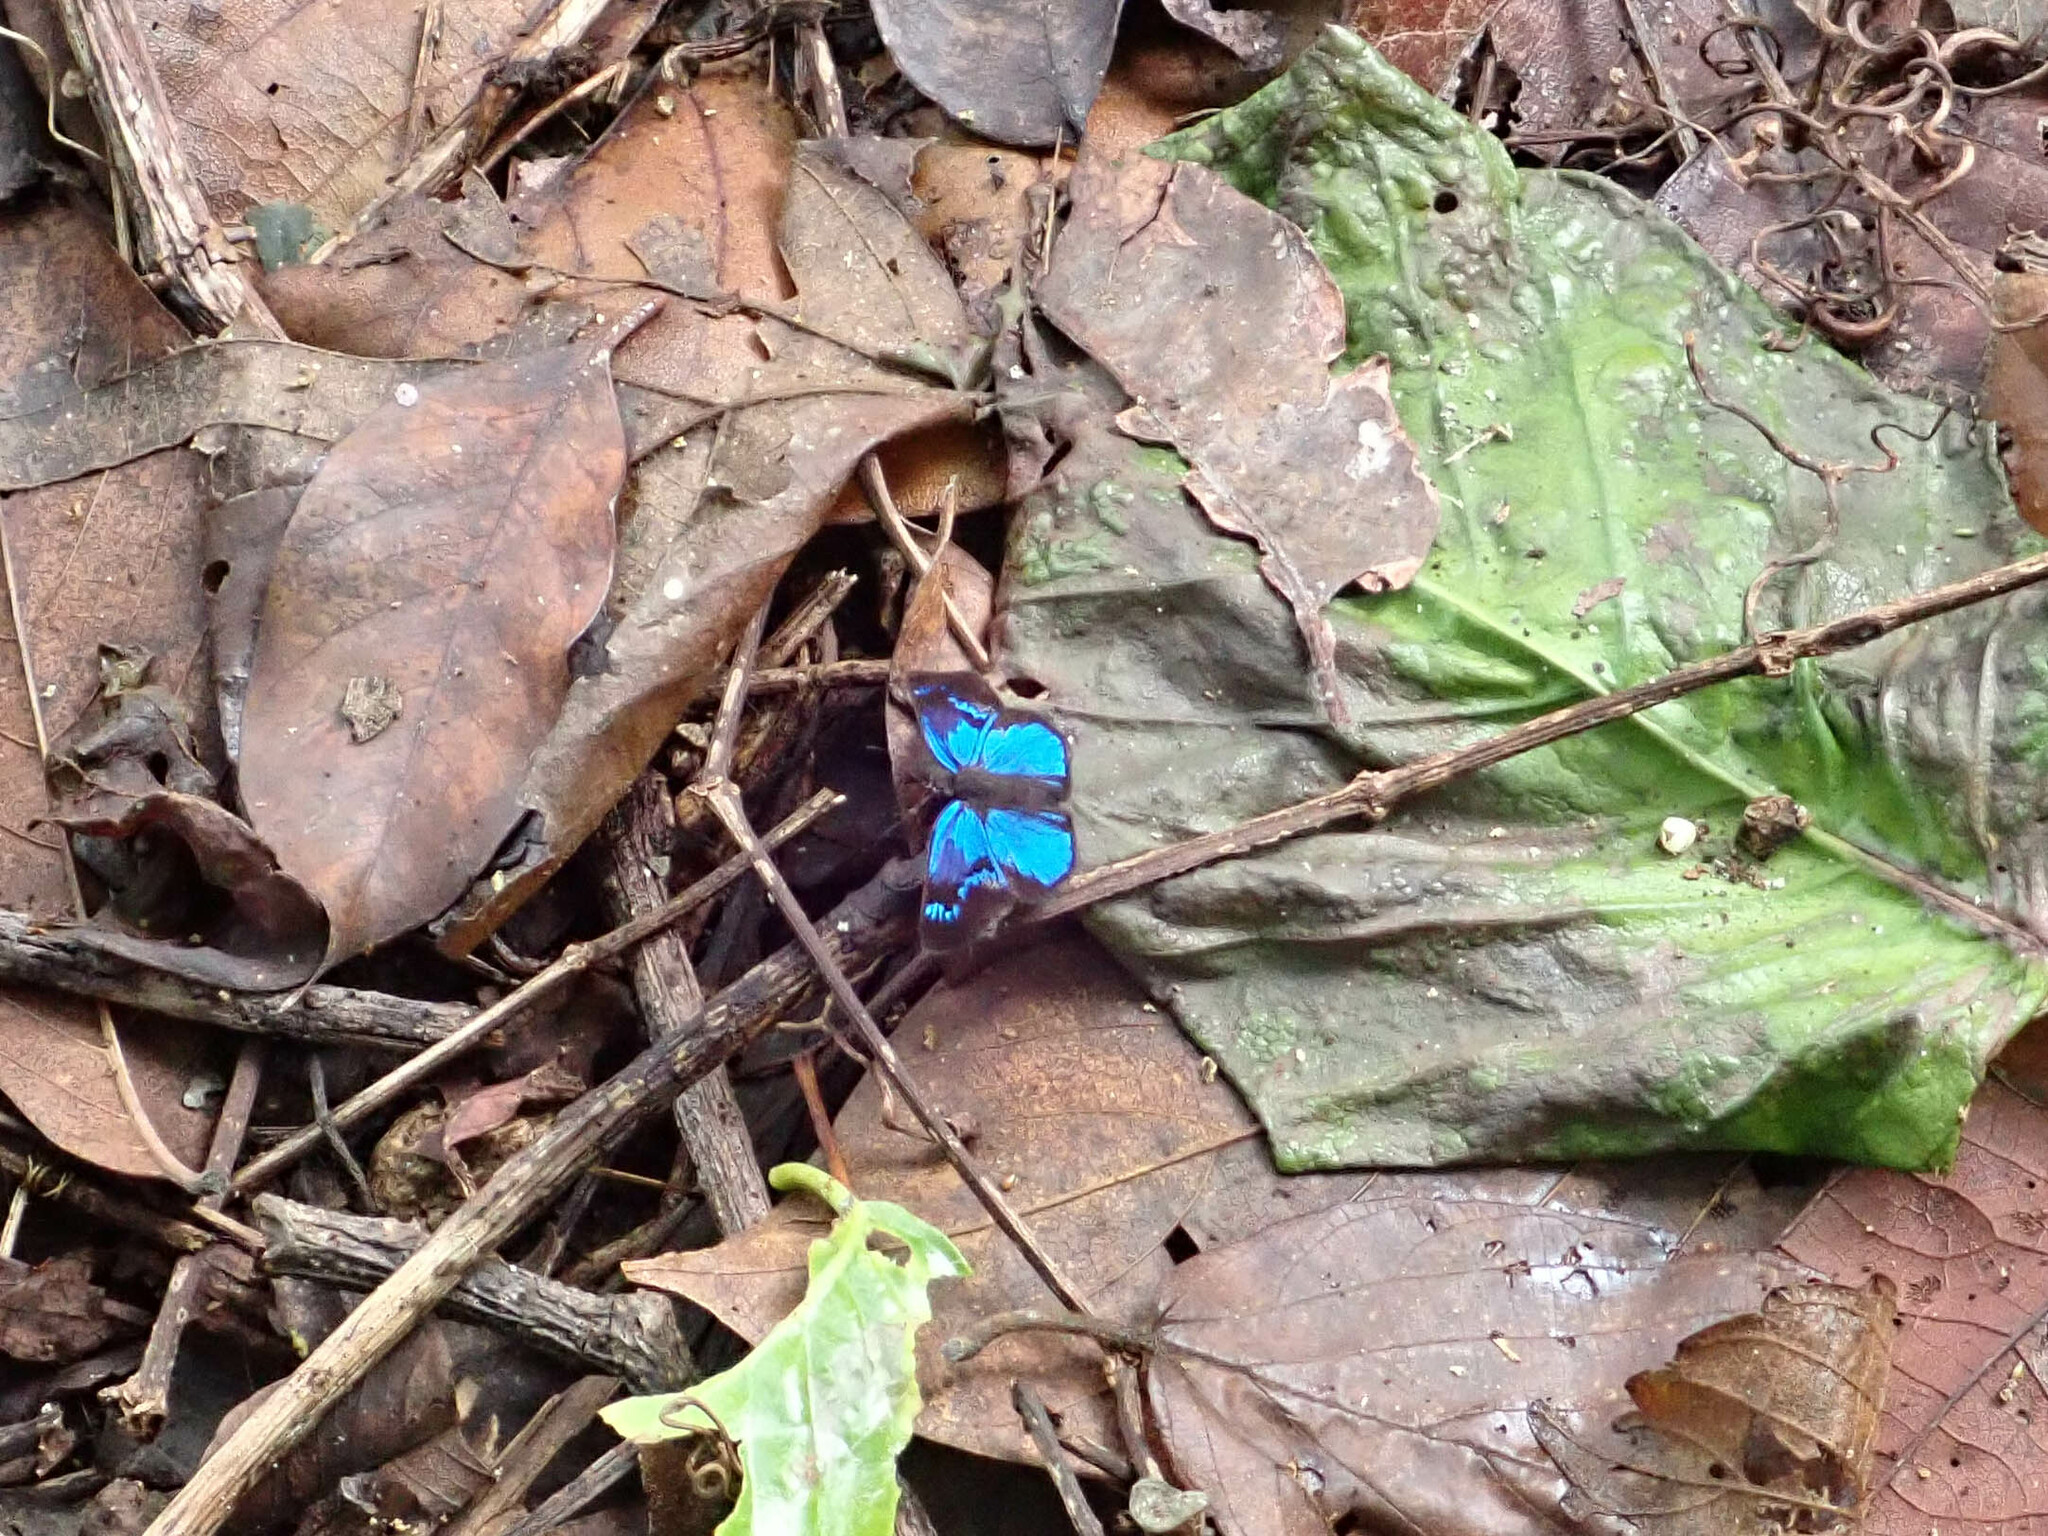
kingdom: Animalia
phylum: Arthropoda
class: Insecta
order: Lepidoptera
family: Hesperiidae
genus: Paches
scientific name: Paches loxus
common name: Glorious blue-skipper
